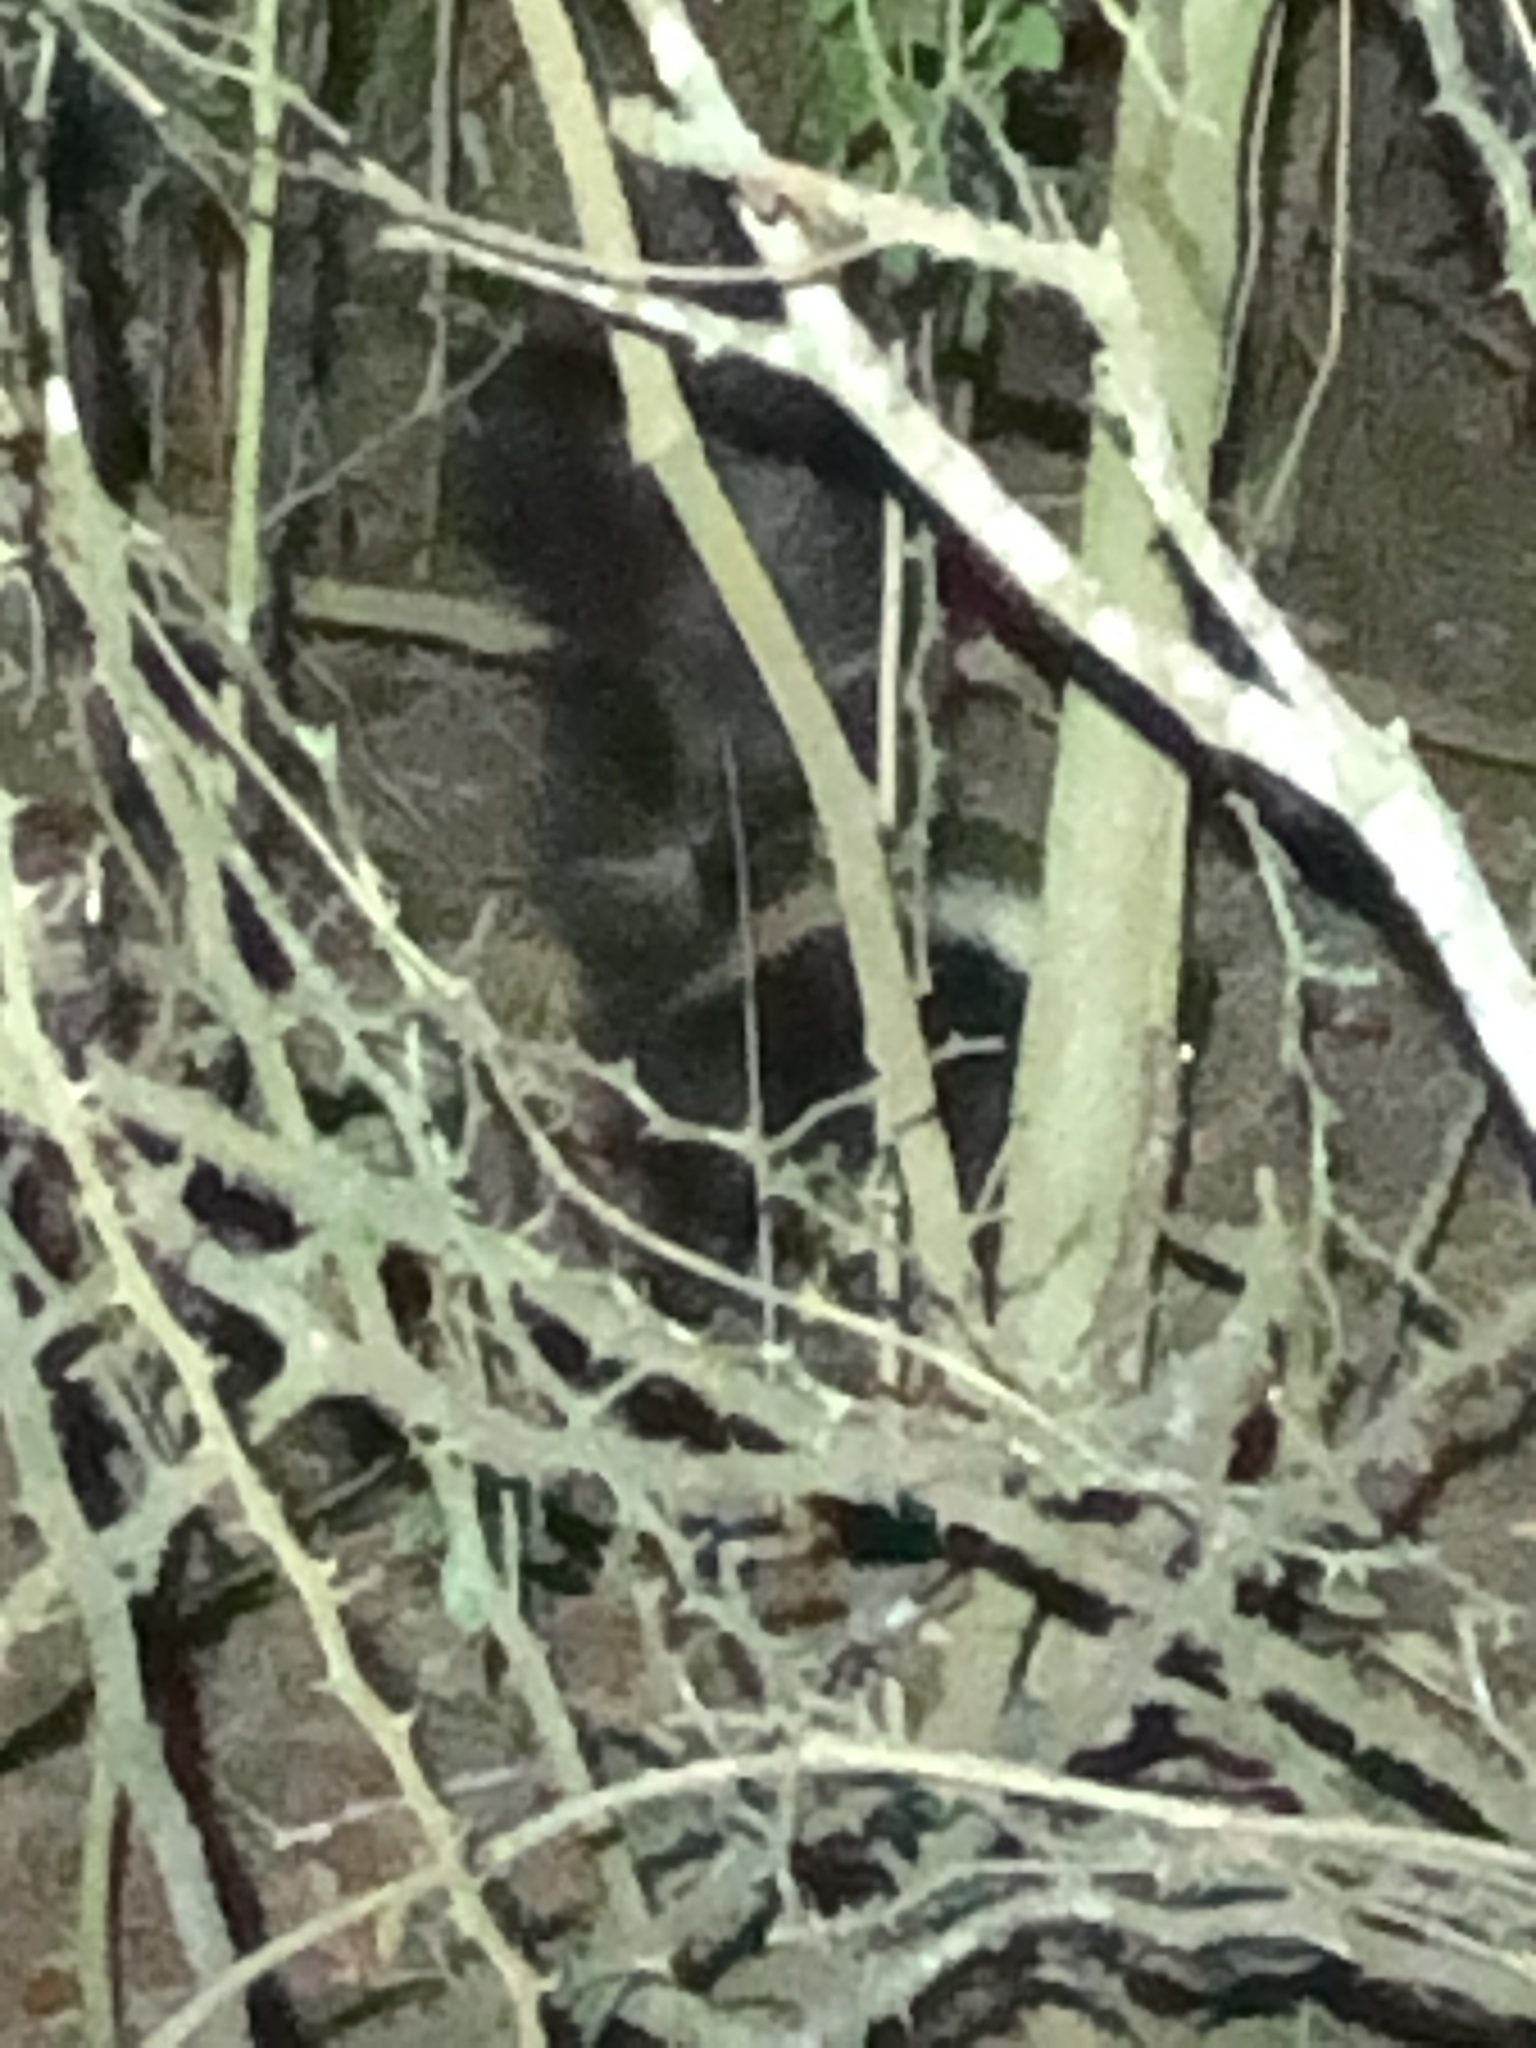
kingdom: Animalia
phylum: Chordata
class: Mammalia
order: Carnivora
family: Mephitidae
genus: Mephitis
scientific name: Mephitis mephitis
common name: Striped skunk
